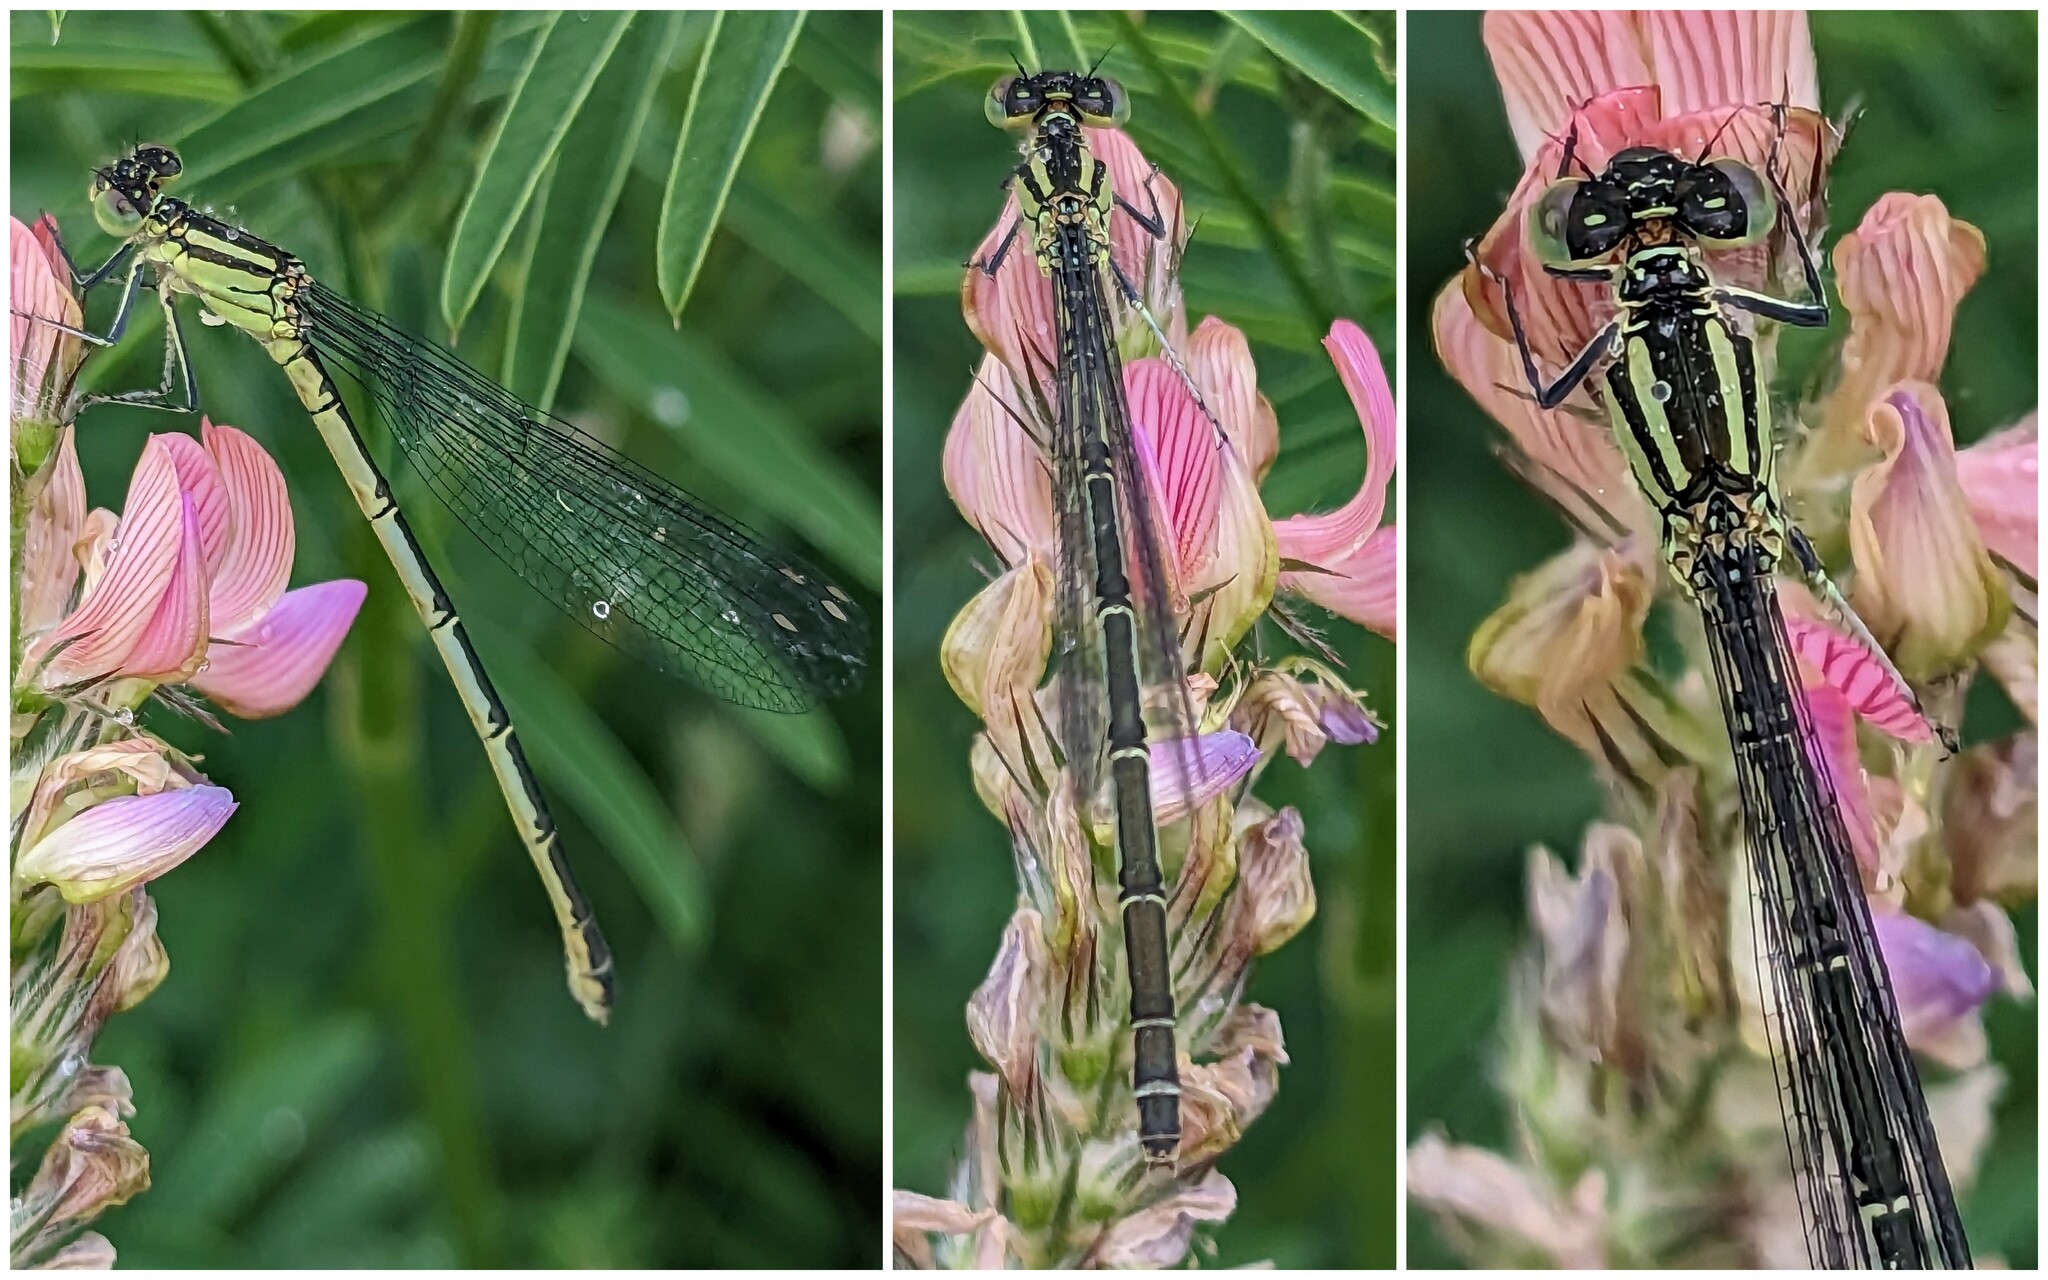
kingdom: Animalia
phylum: Arthropoda
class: Insecta
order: Odonata
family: Coenagrionidae
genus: Erythromma
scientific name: Erythromma lindenii
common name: Blue-eye
